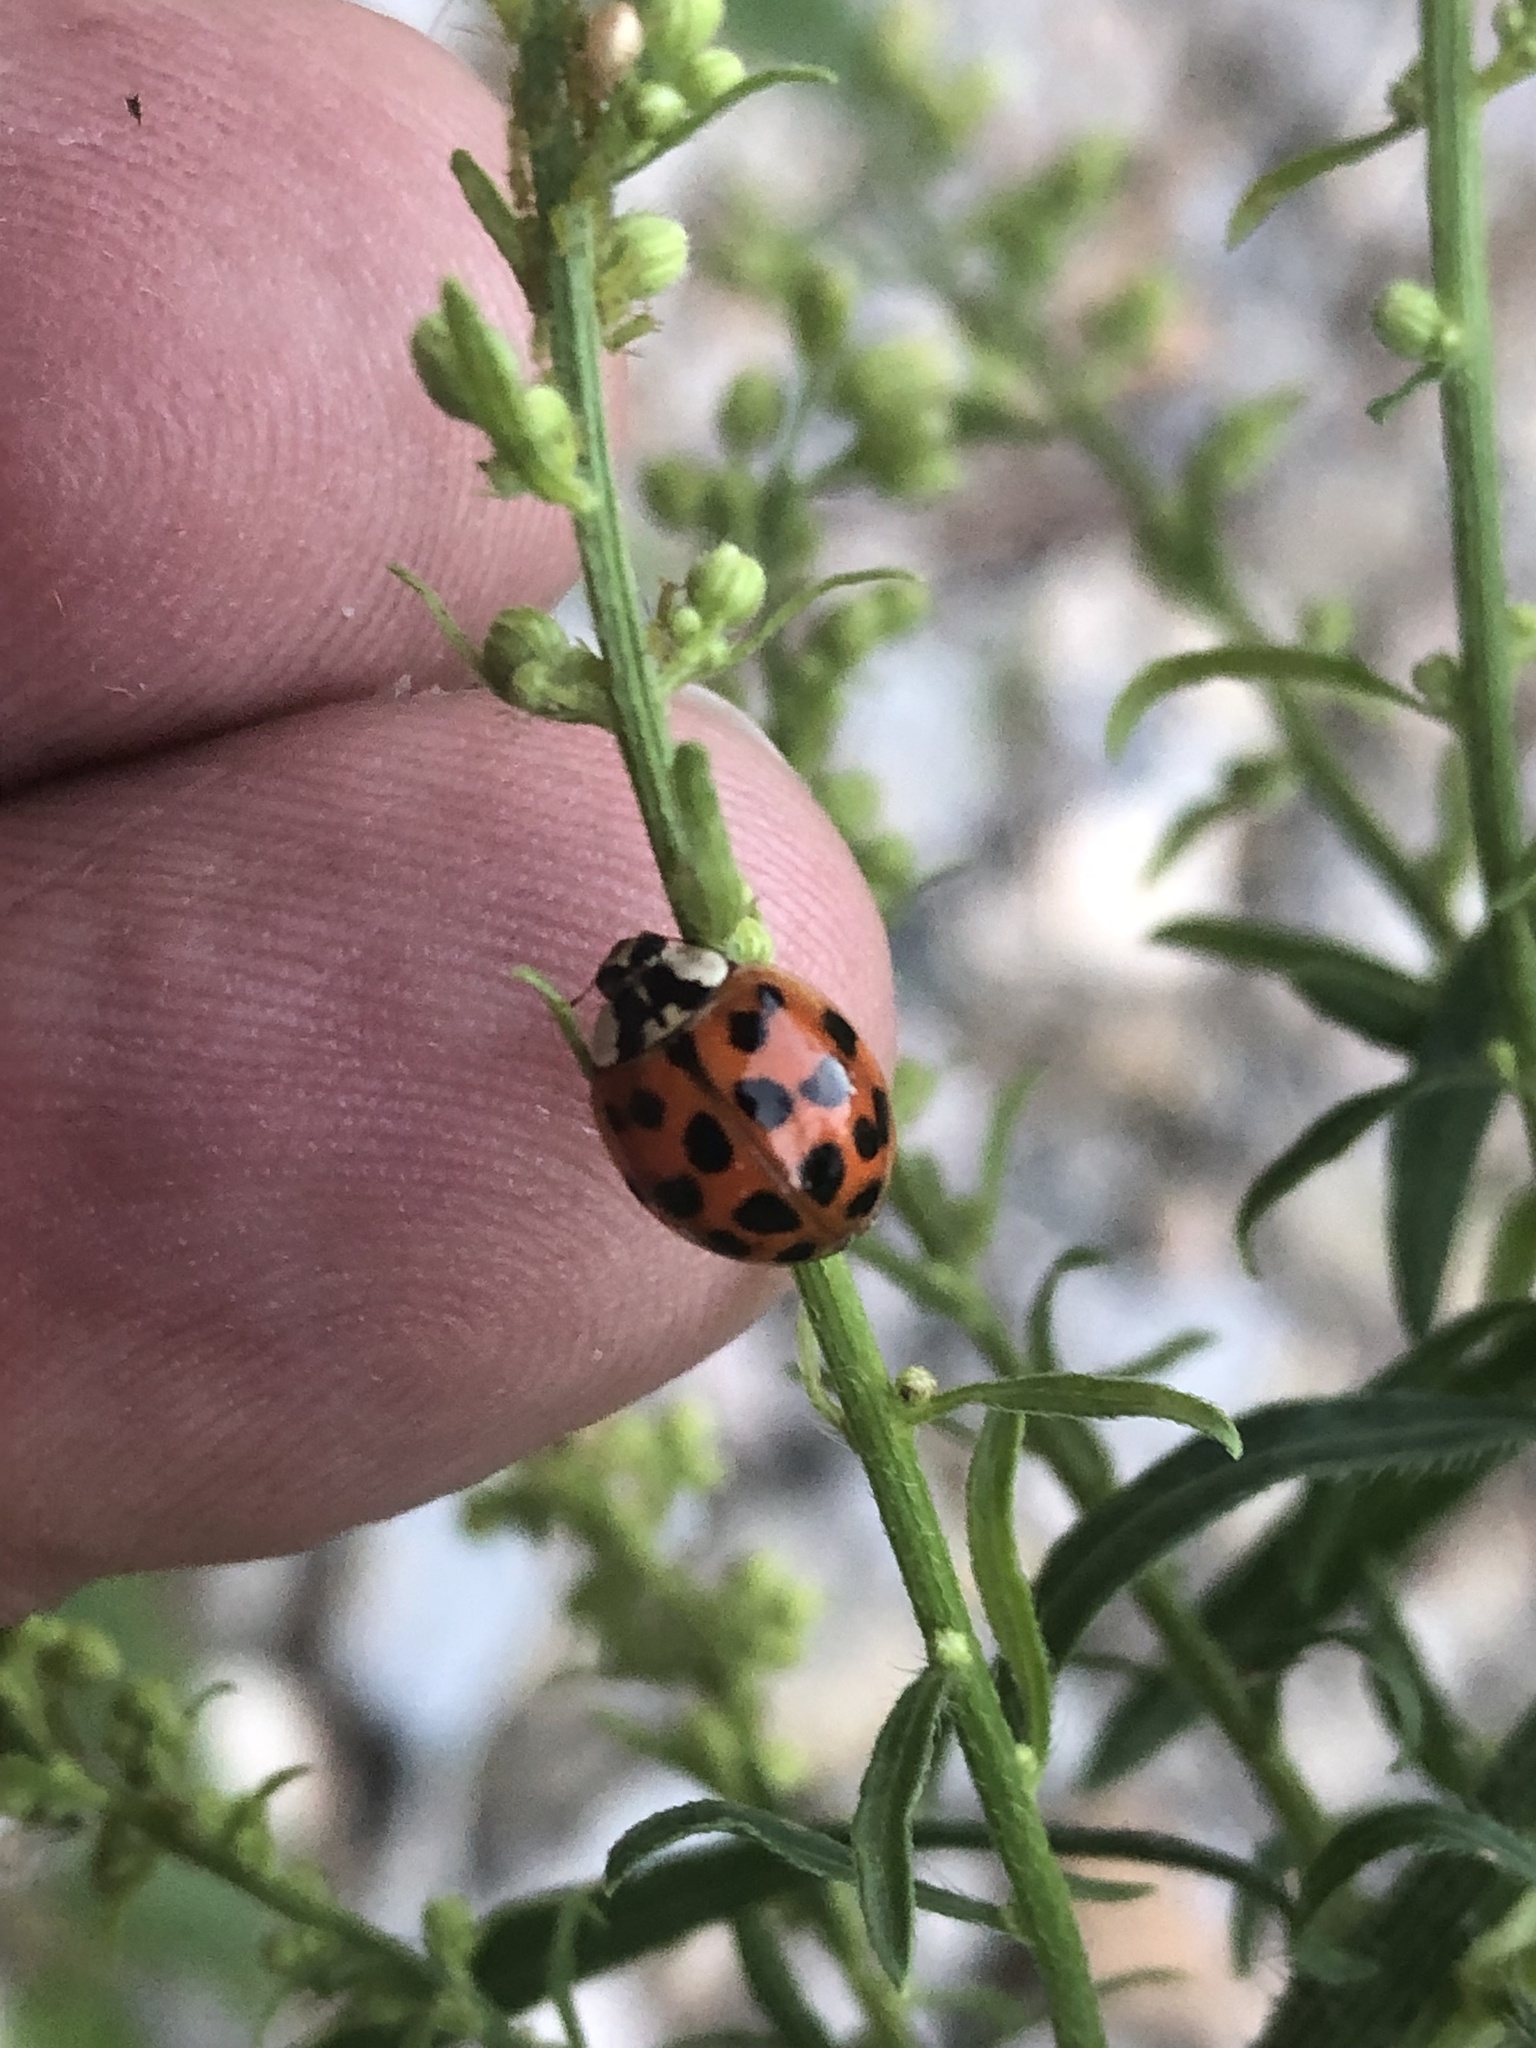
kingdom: Animalia
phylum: Arthropoda
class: Insecta
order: Coleoptera
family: Coccinellidae
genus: Harmonia
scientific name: Harmonia axyridis
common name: Harlequin ladybird
